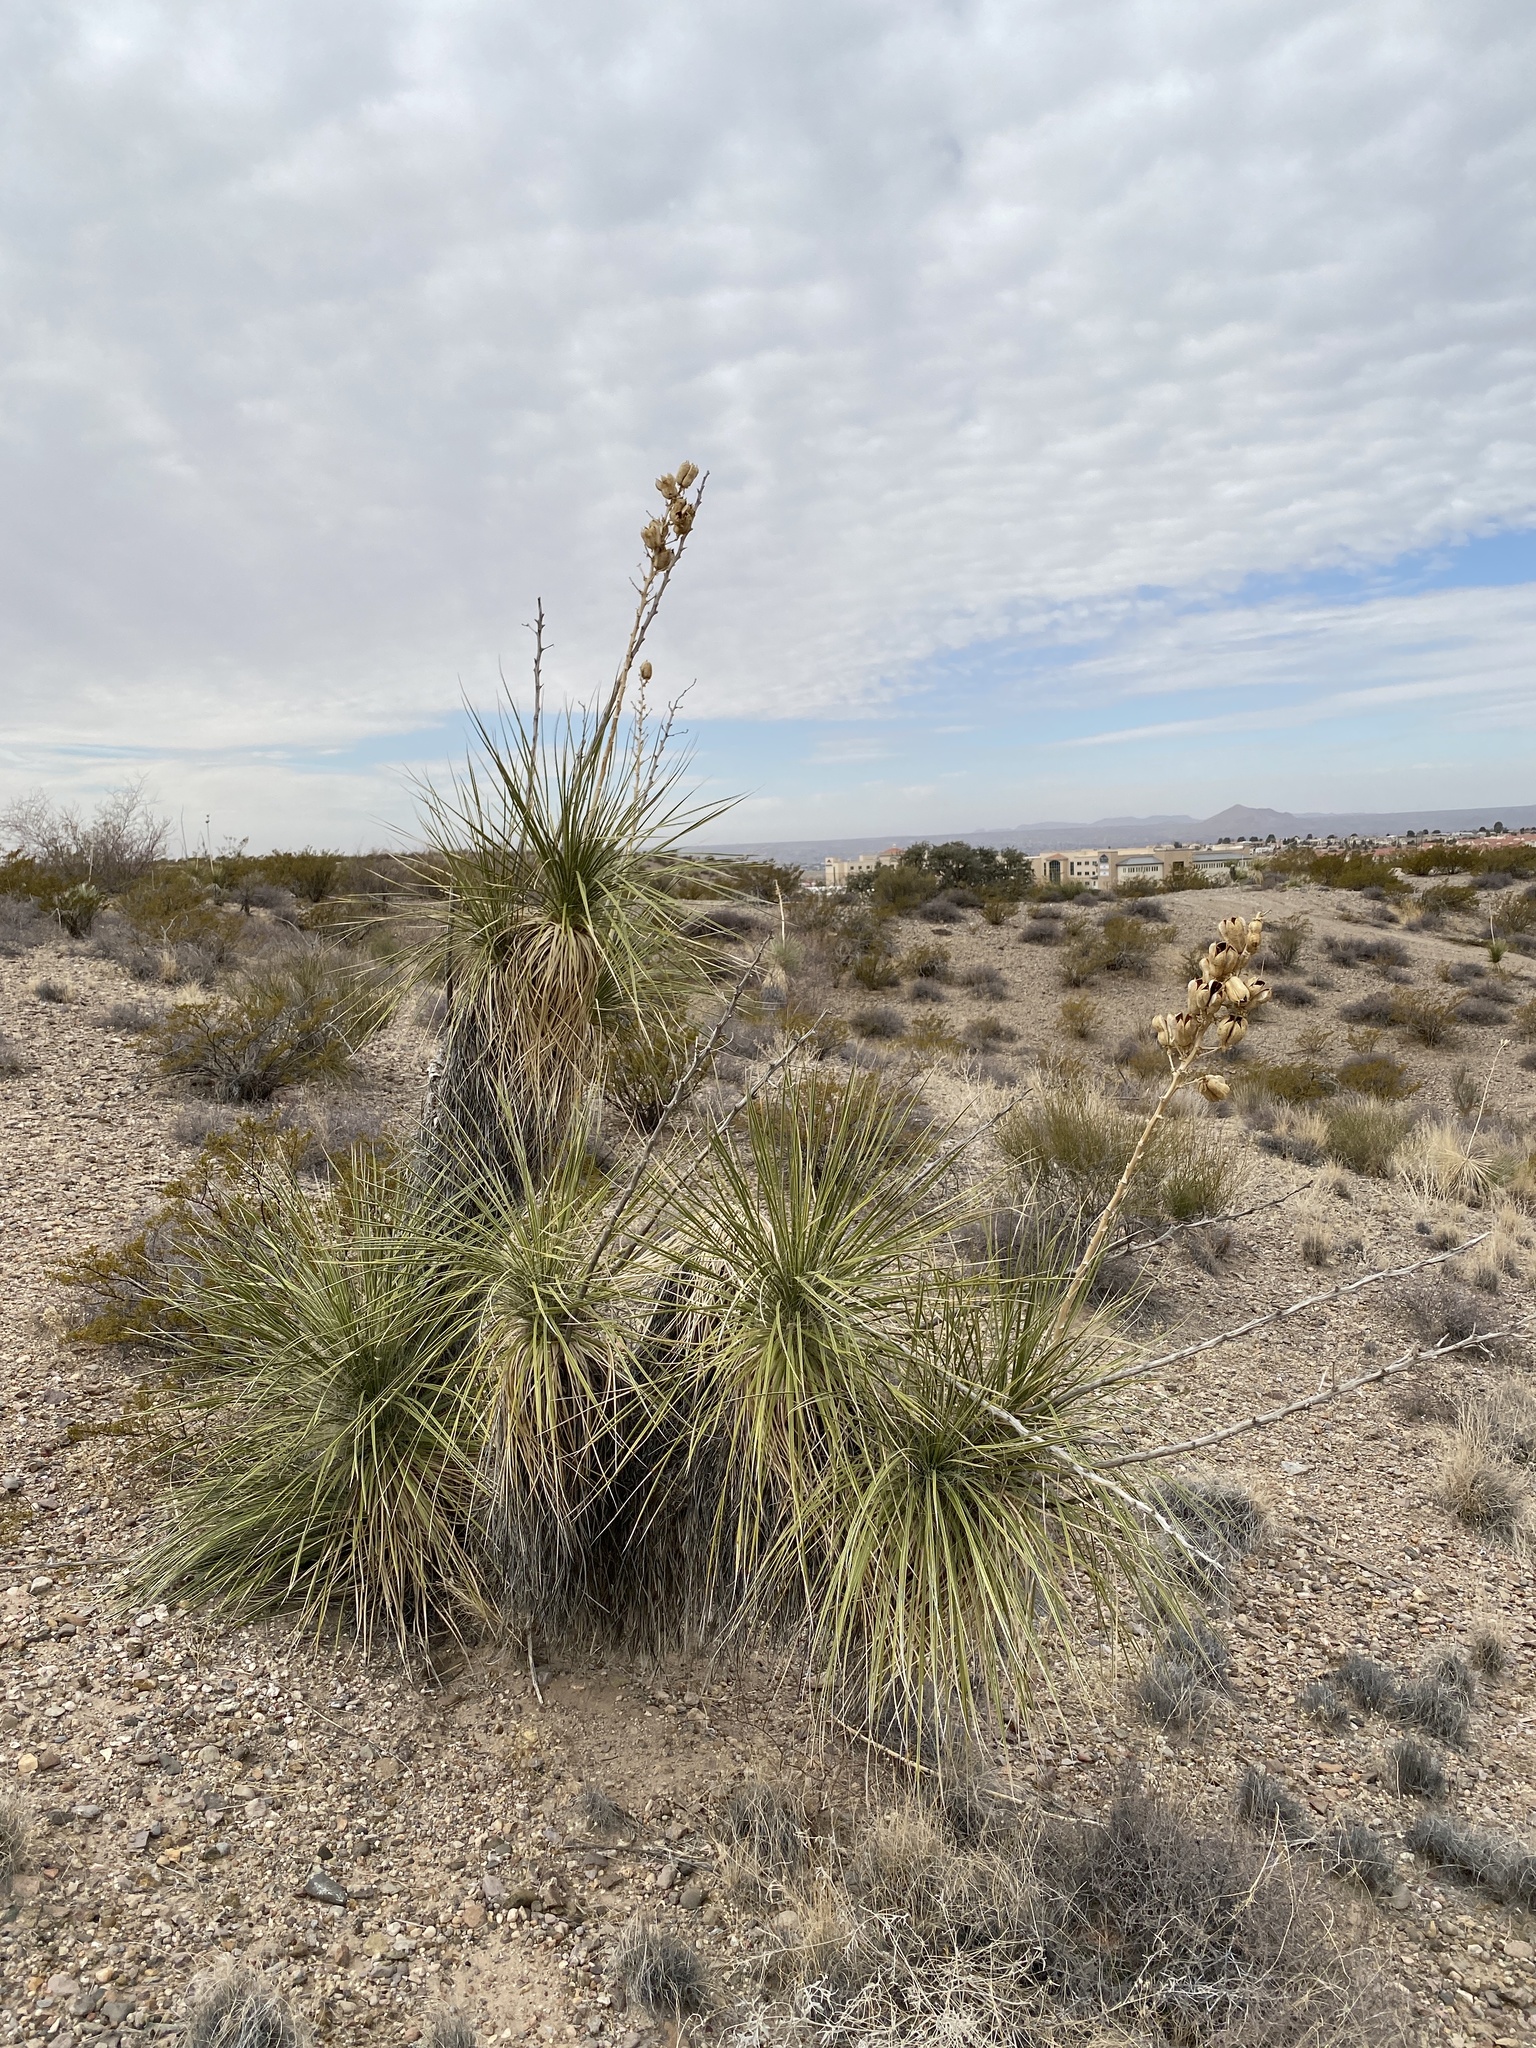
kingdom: Plantae
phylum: Tracheophyta
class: Liliopsida
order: Asparagales
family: Asparagaceae
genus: Yucca
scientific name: Yucca elata
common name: Palmella
